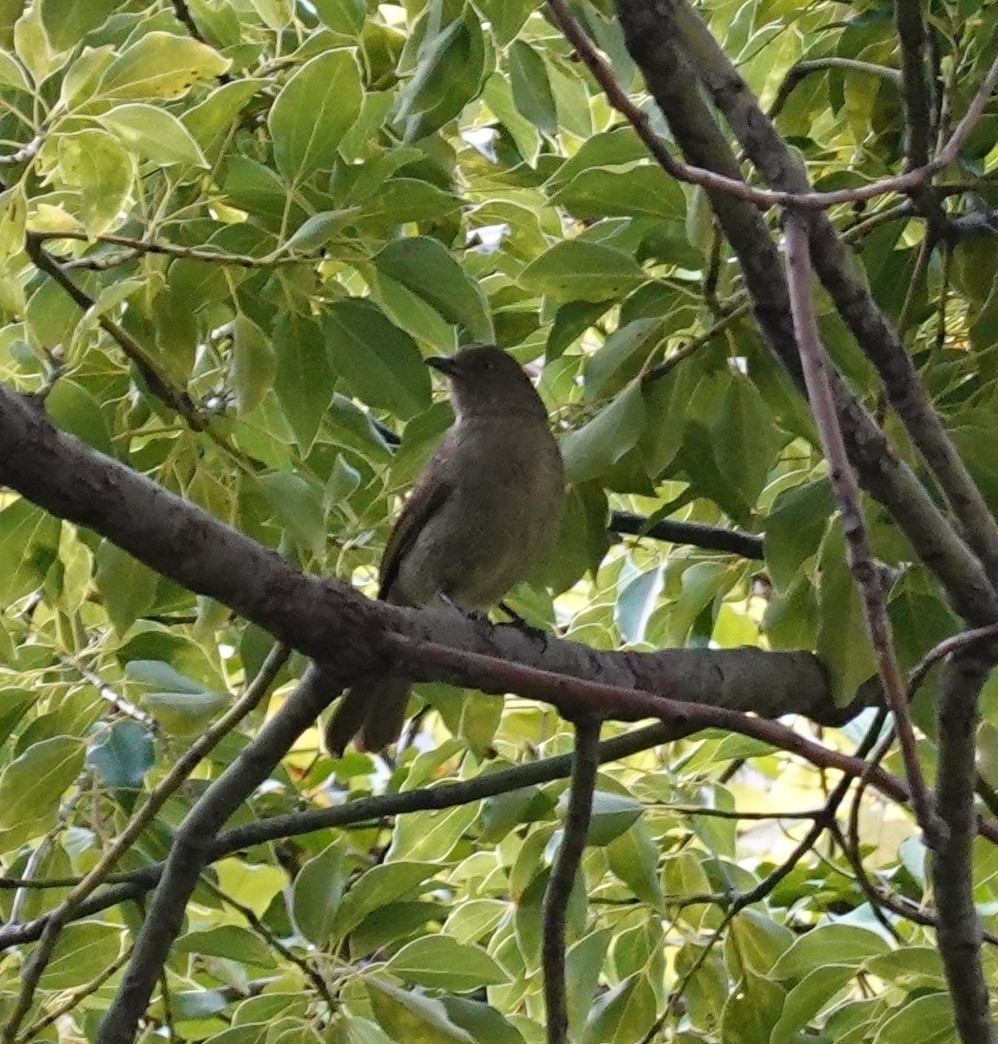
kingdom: Animalia
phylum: Chordata
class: Aves
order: Passeriformes
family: Pycnonotidae
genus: Andropadus
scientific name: Andropadus importunus
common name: Sombre greenbul
